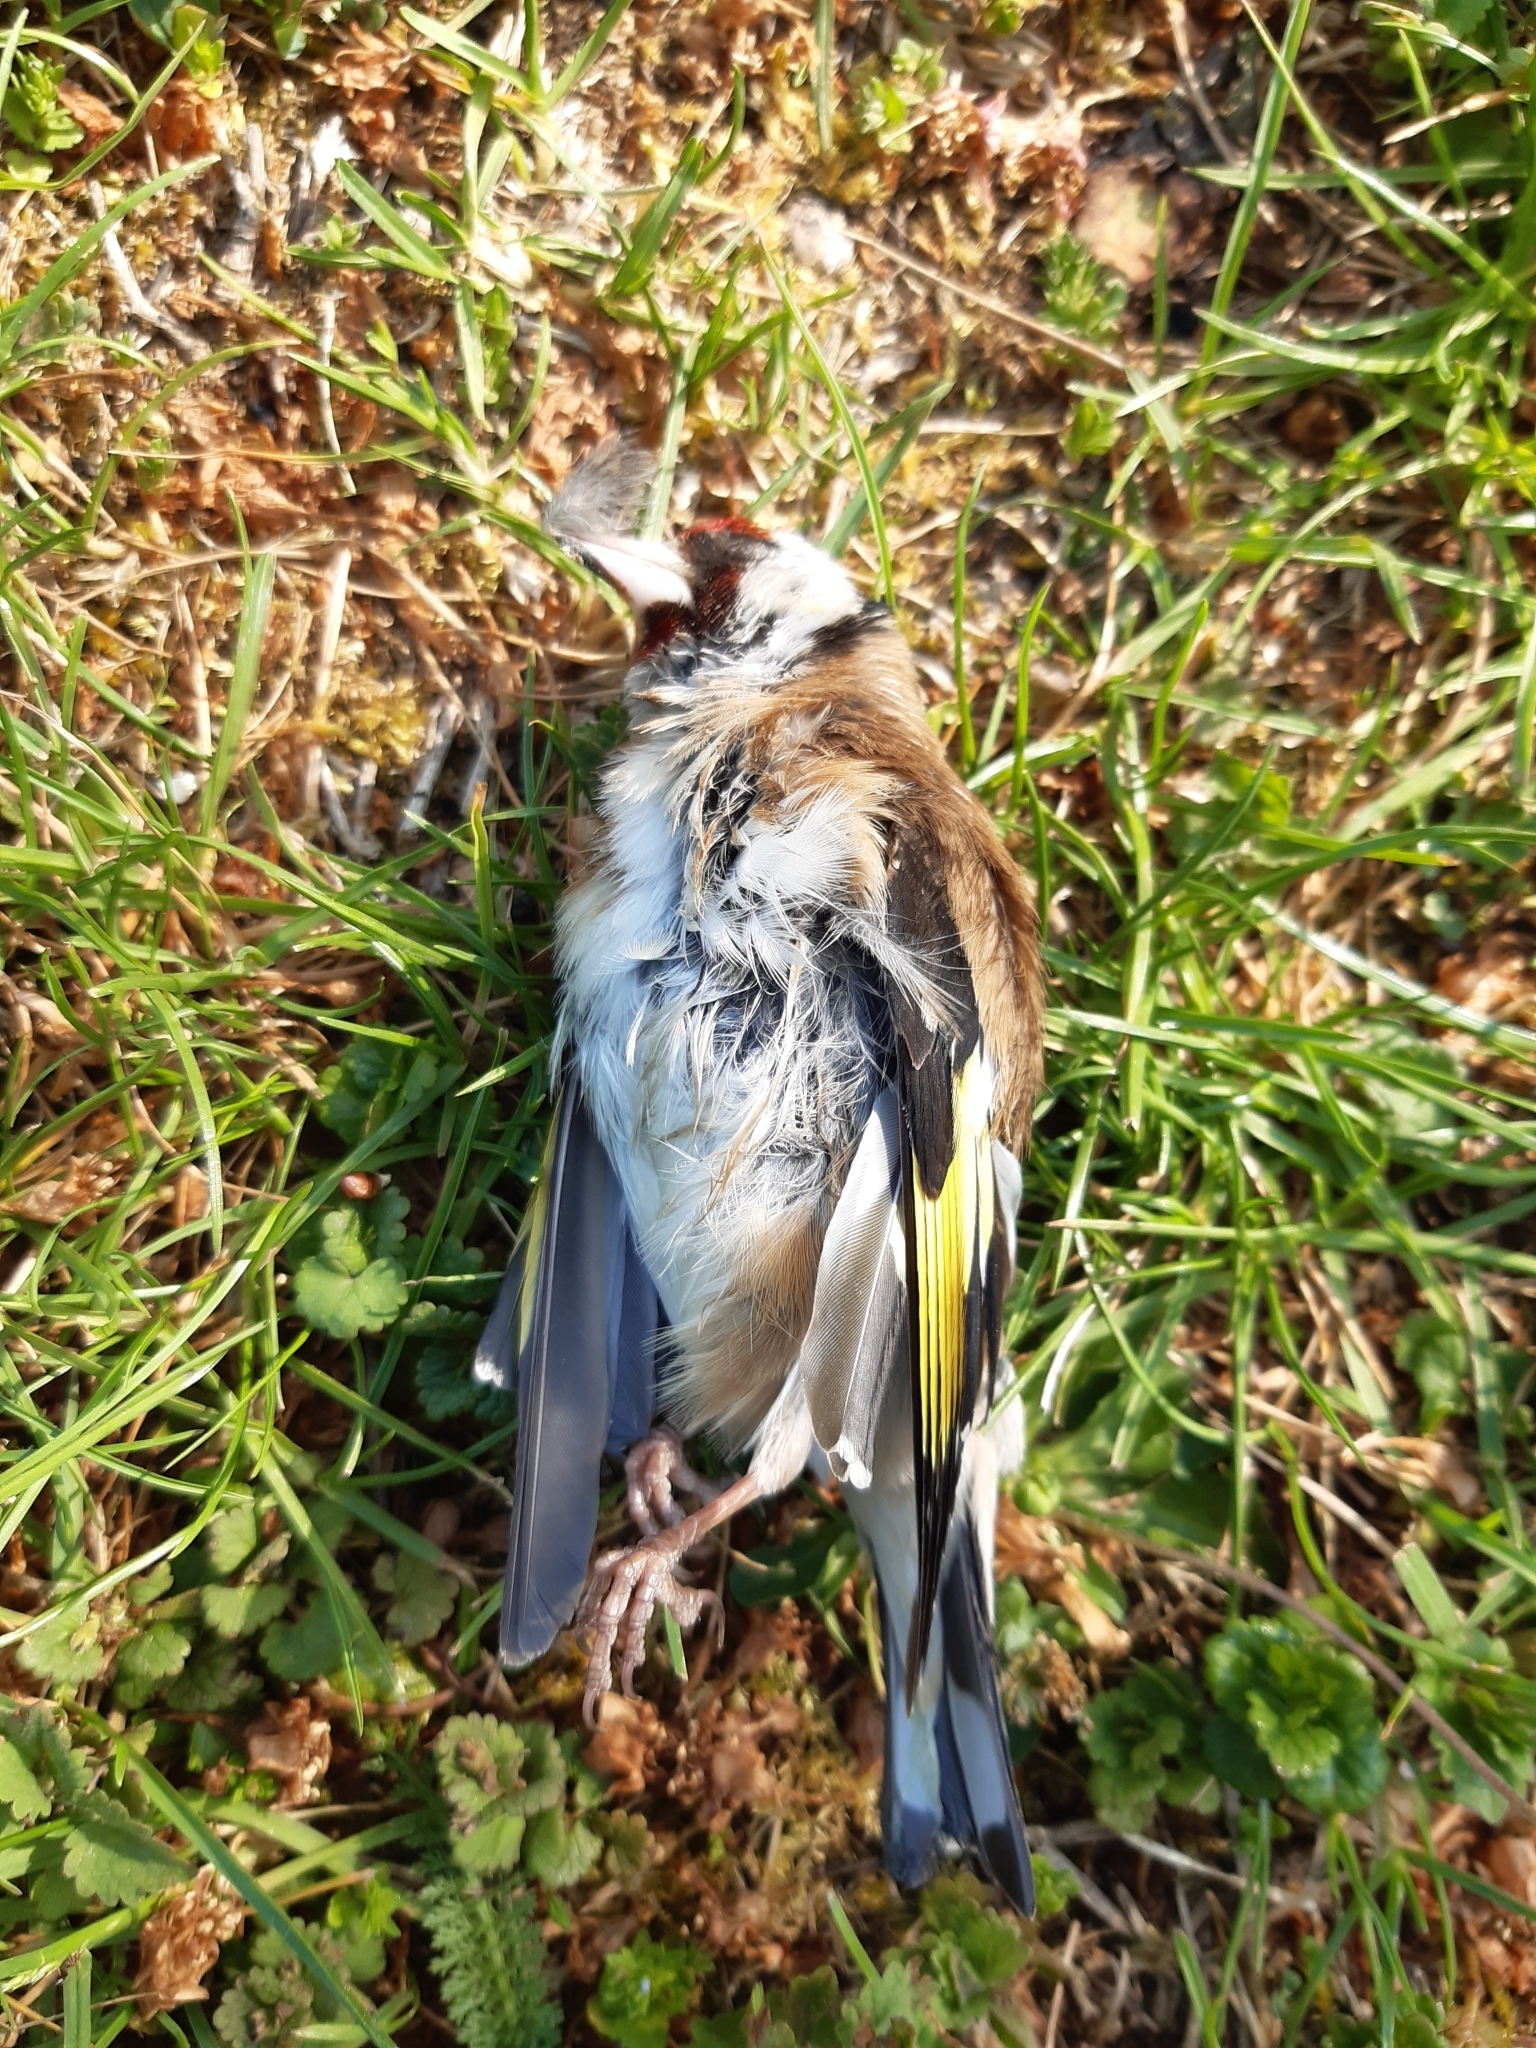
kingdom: Animalia
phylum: Chordata
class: Aves
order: Passeriformes
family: Fringillidae
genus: Carduelis
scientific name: Carduelis carduelis
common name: European goldfinch
